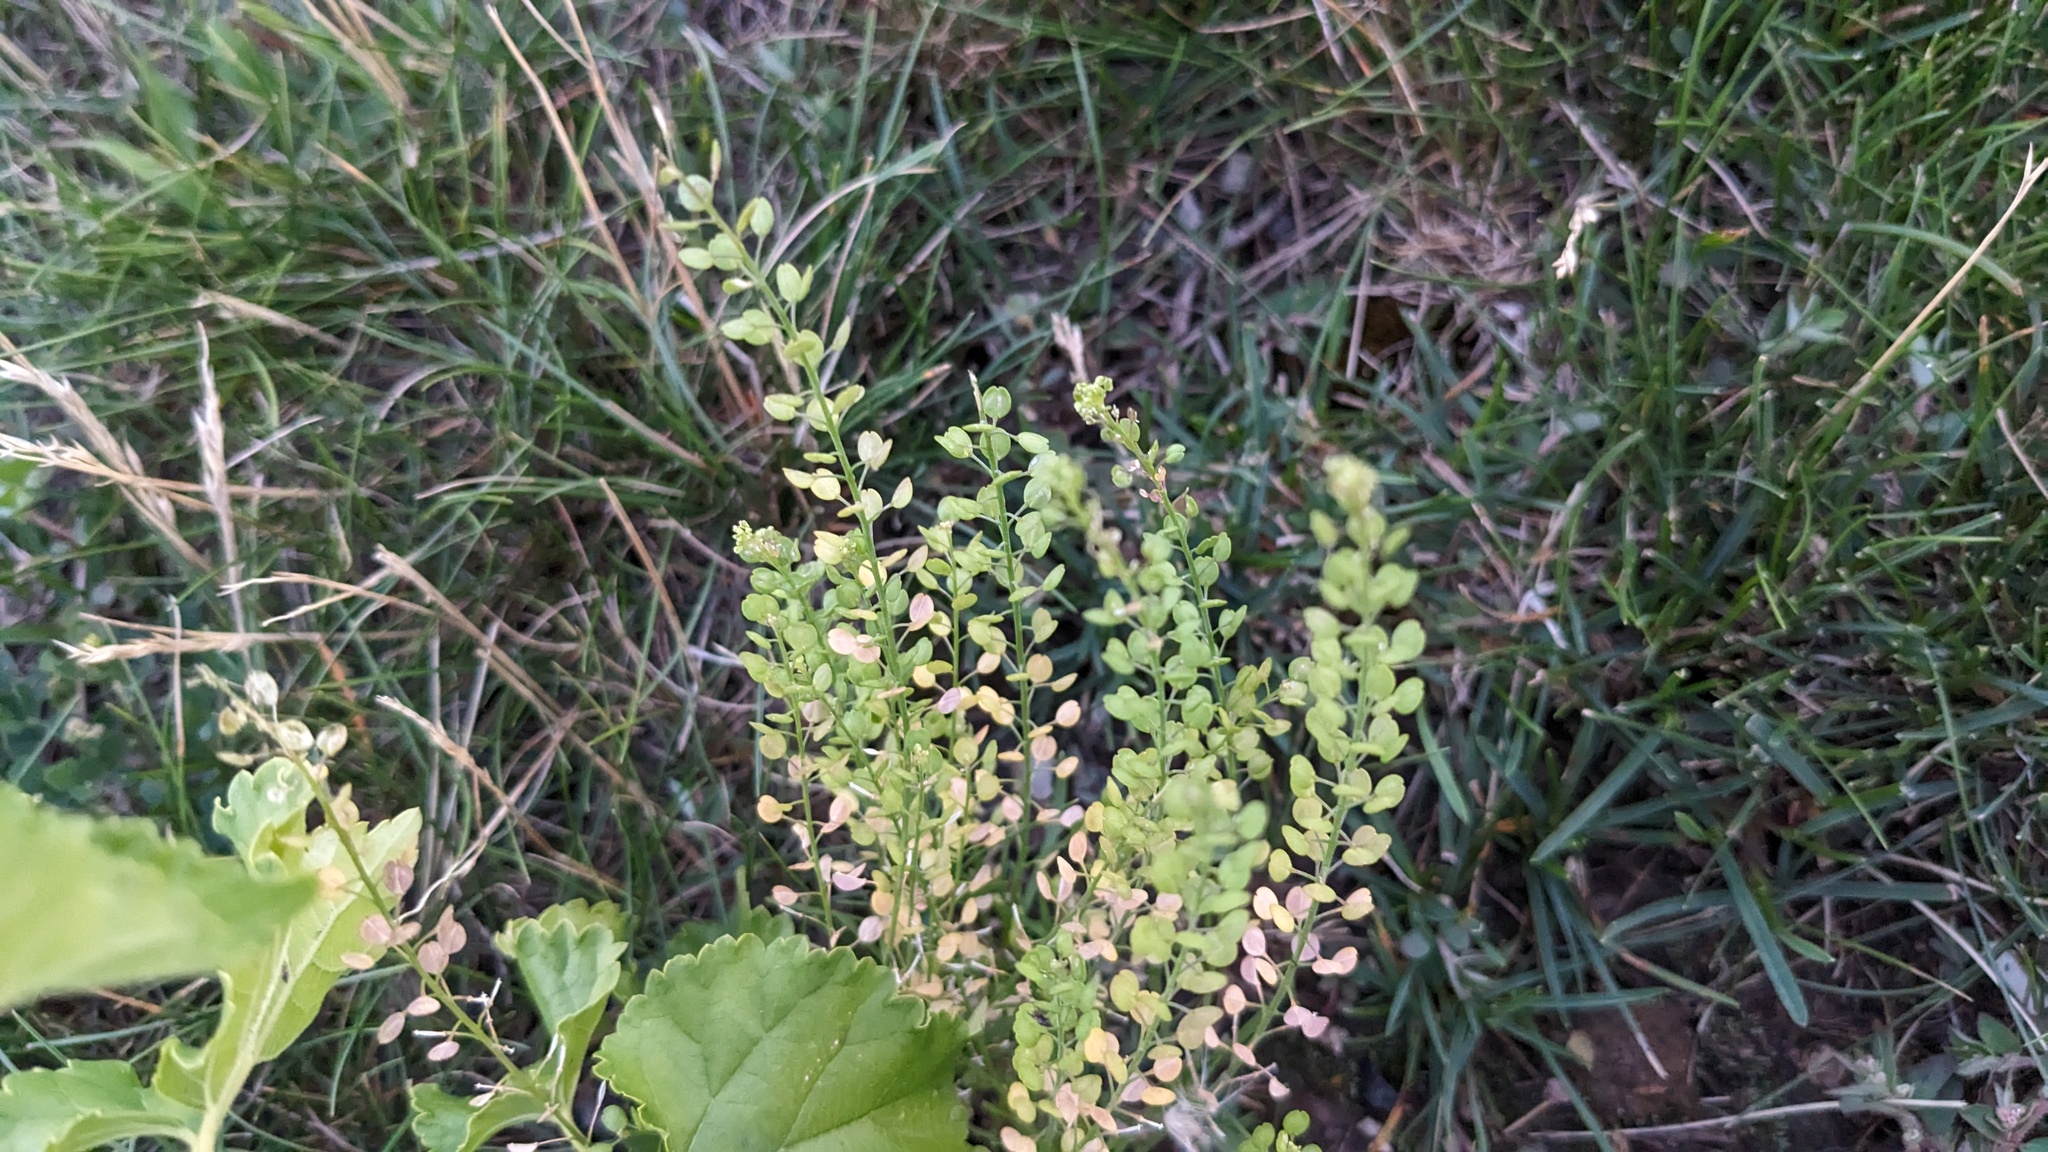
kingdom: Plantae
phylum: Tracheophyta
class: Magnoliopsida
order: Brassicales
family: Brassicaceae
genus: Lepidium
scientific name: Lepidium densiflorum
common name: Miner's pepperwort
